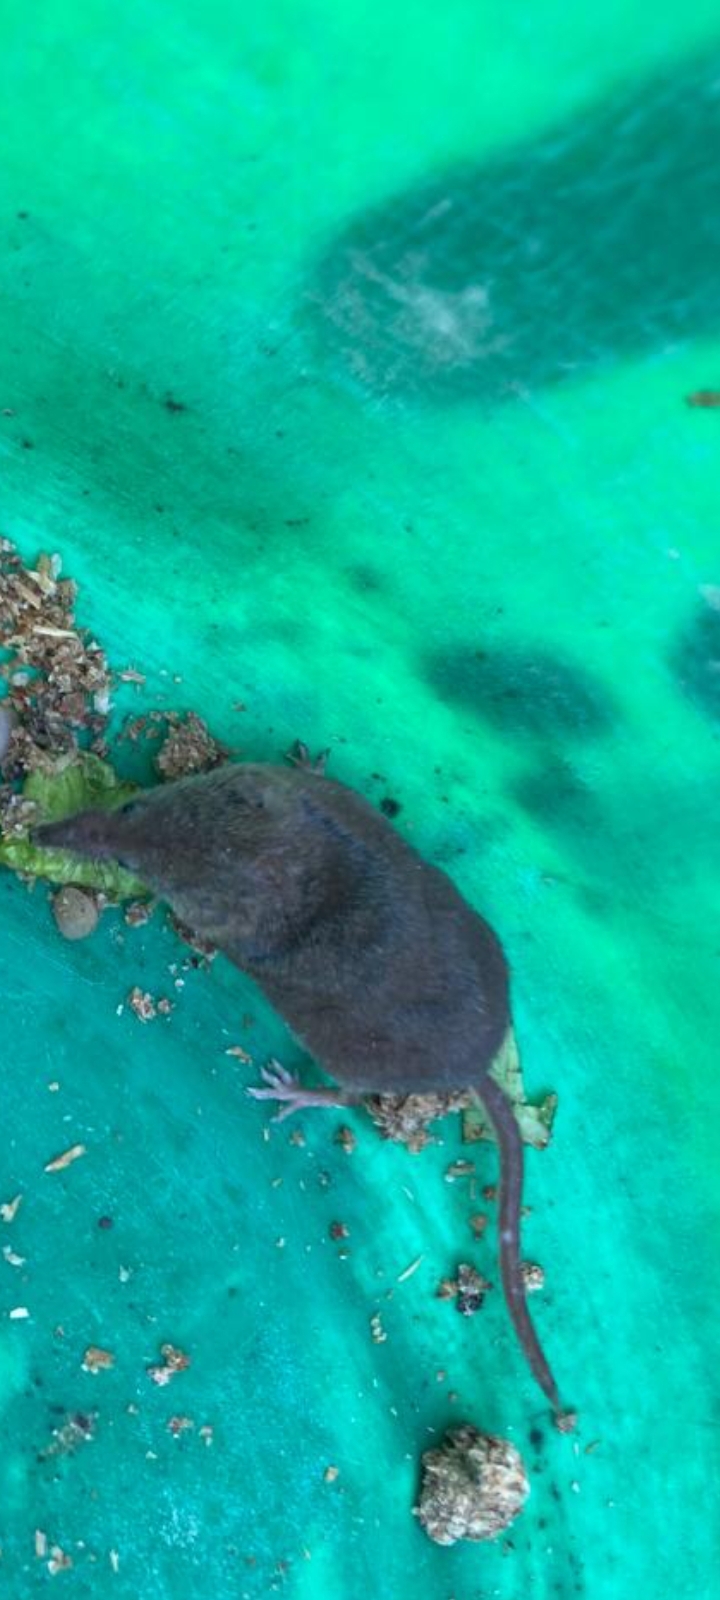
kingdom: Animalia
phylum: Chordata
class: Mammalia
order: Soricomorpha
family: Soricidae
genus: Sorex
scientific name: Sorex araneus
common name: Common shrew
